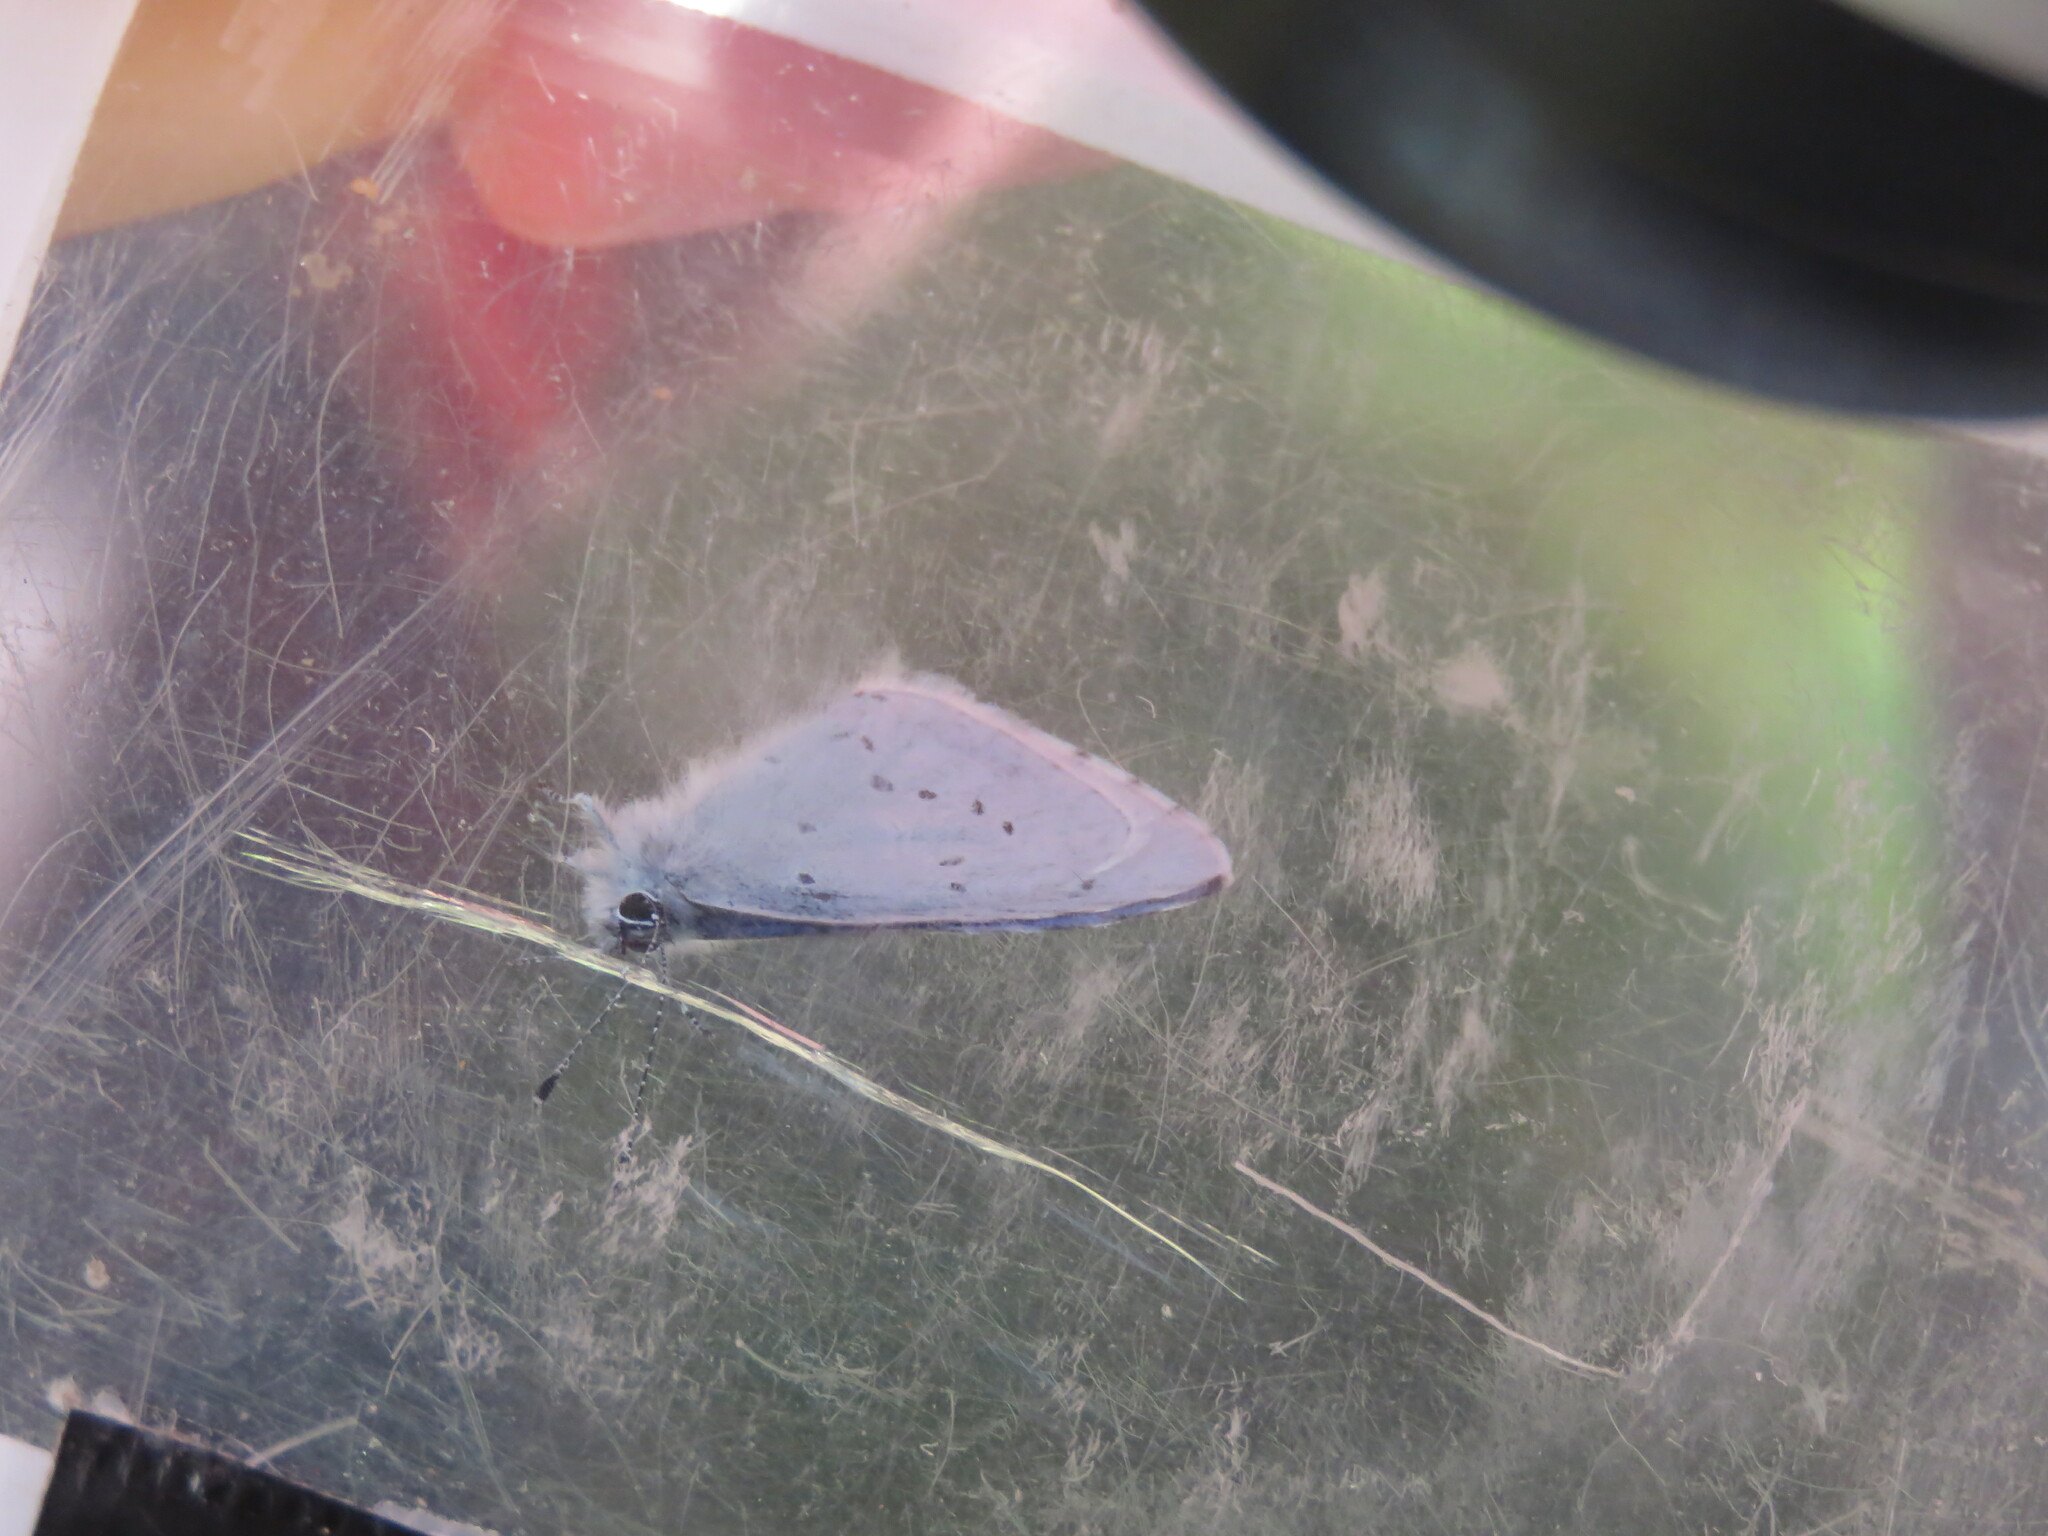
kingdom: Animalia
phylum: Arthropoda
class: Insecta
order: Lepidoptera
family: Lycaenidae
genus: Celastrina
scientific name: Celastrina argiolus
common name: Holly blue
